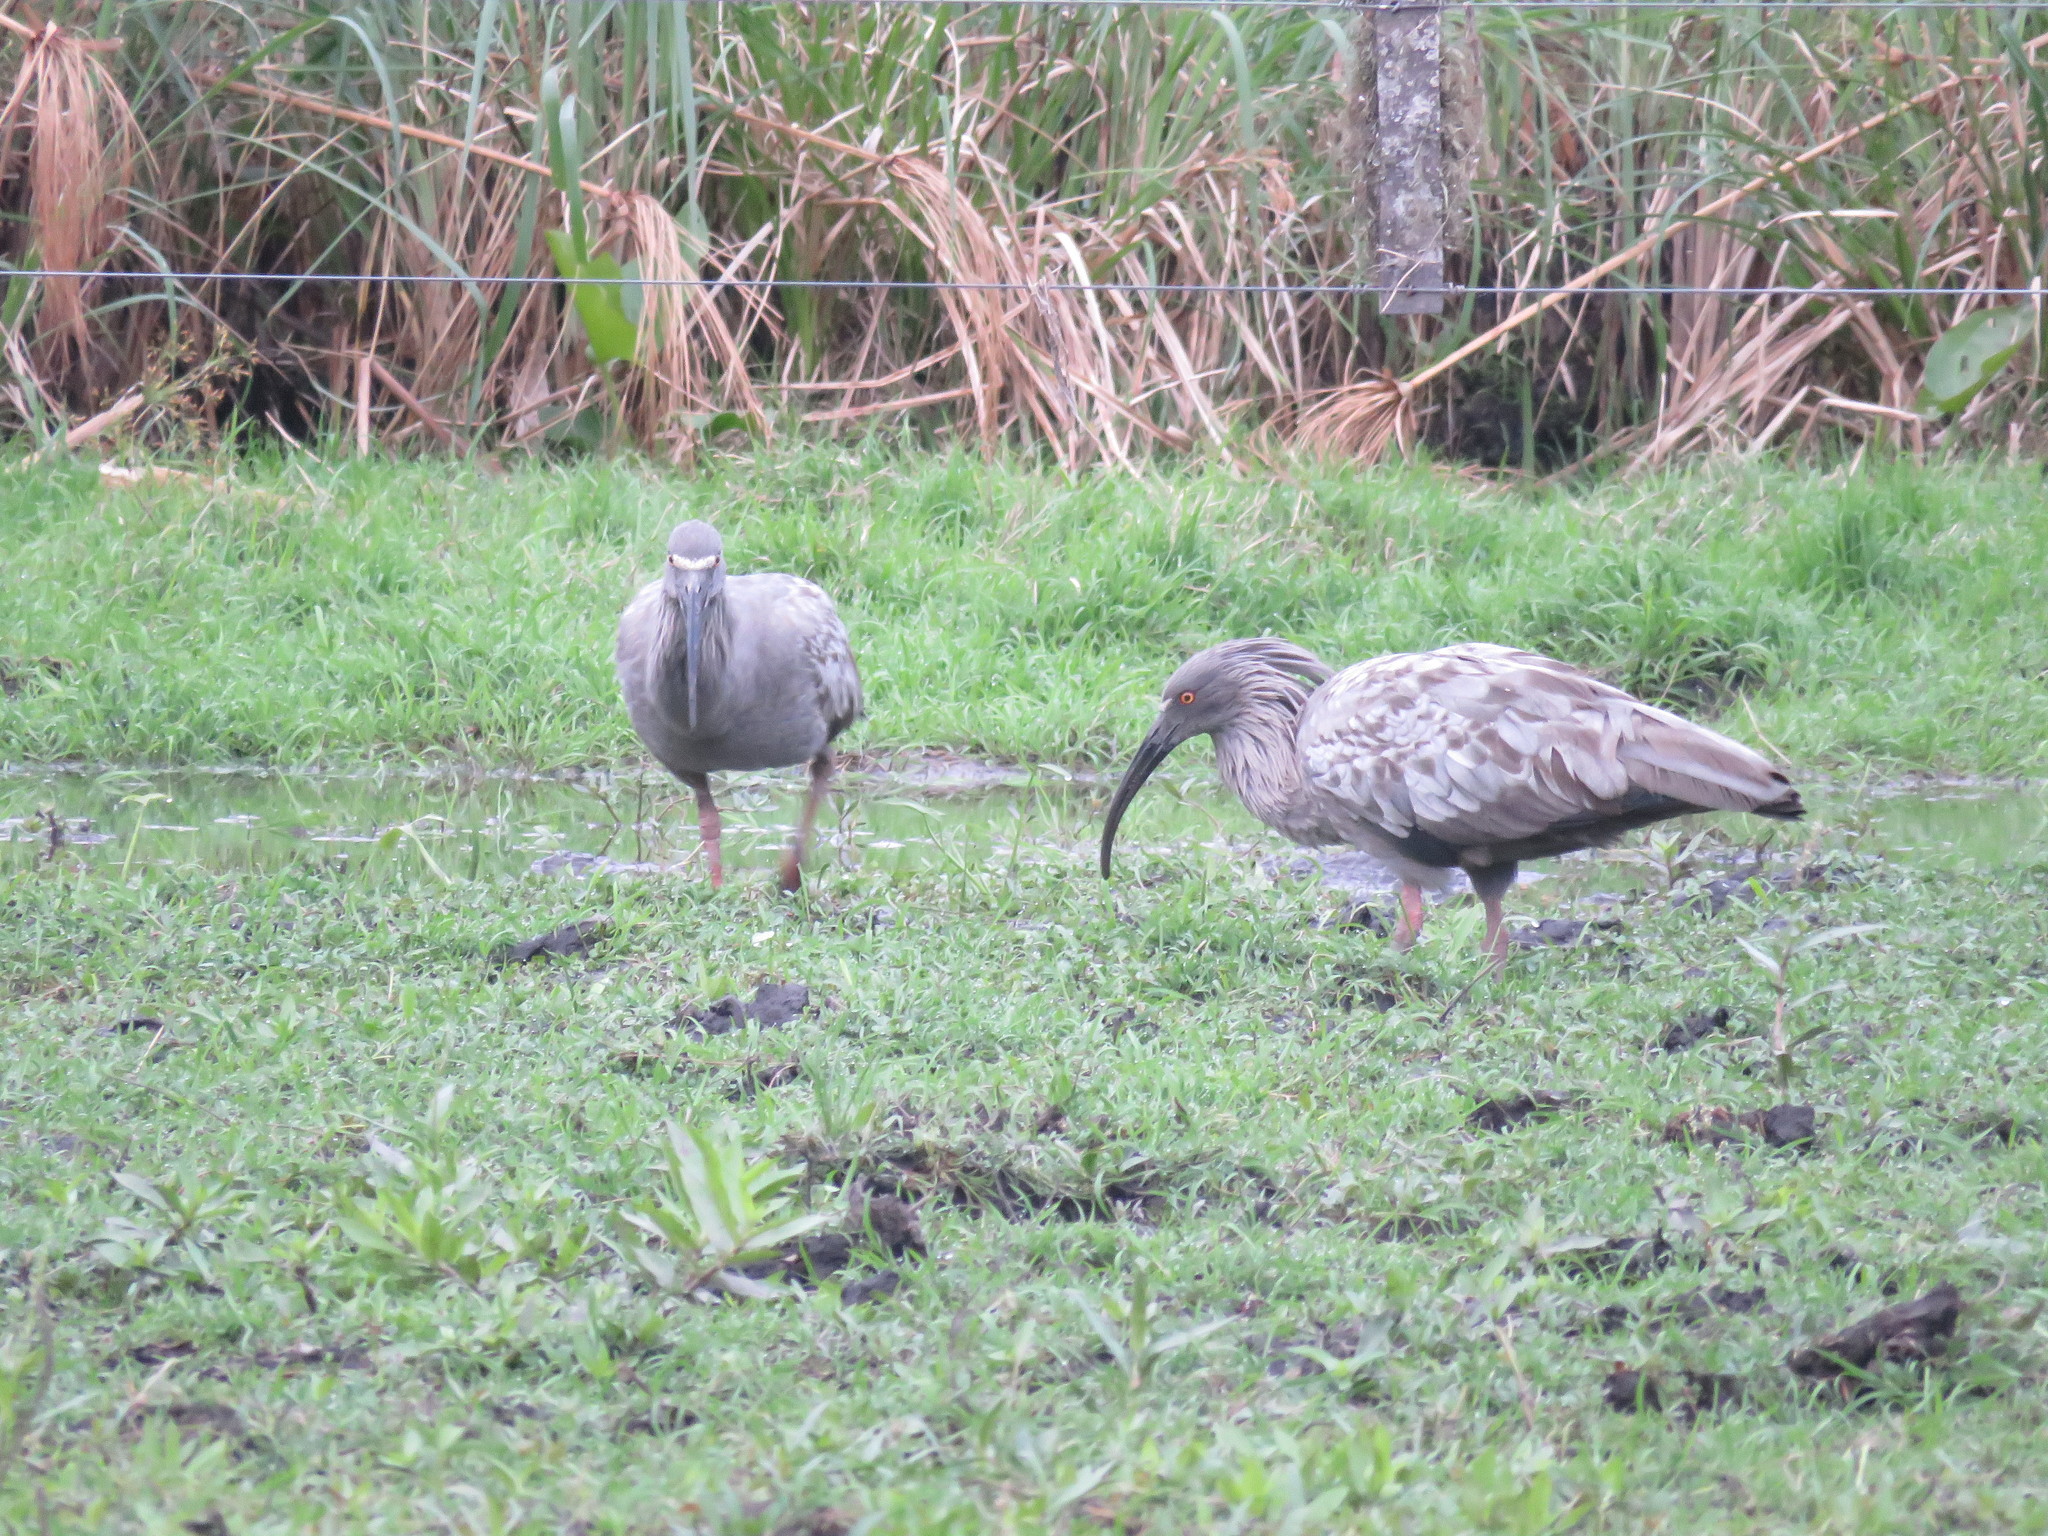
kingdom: Animalia
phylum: Chordata
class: Aves
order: Pelecaniformes
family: Threskiornithidae
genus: Theristicus
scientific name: Theristicus caerulescens
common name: Plumbeous ibis
